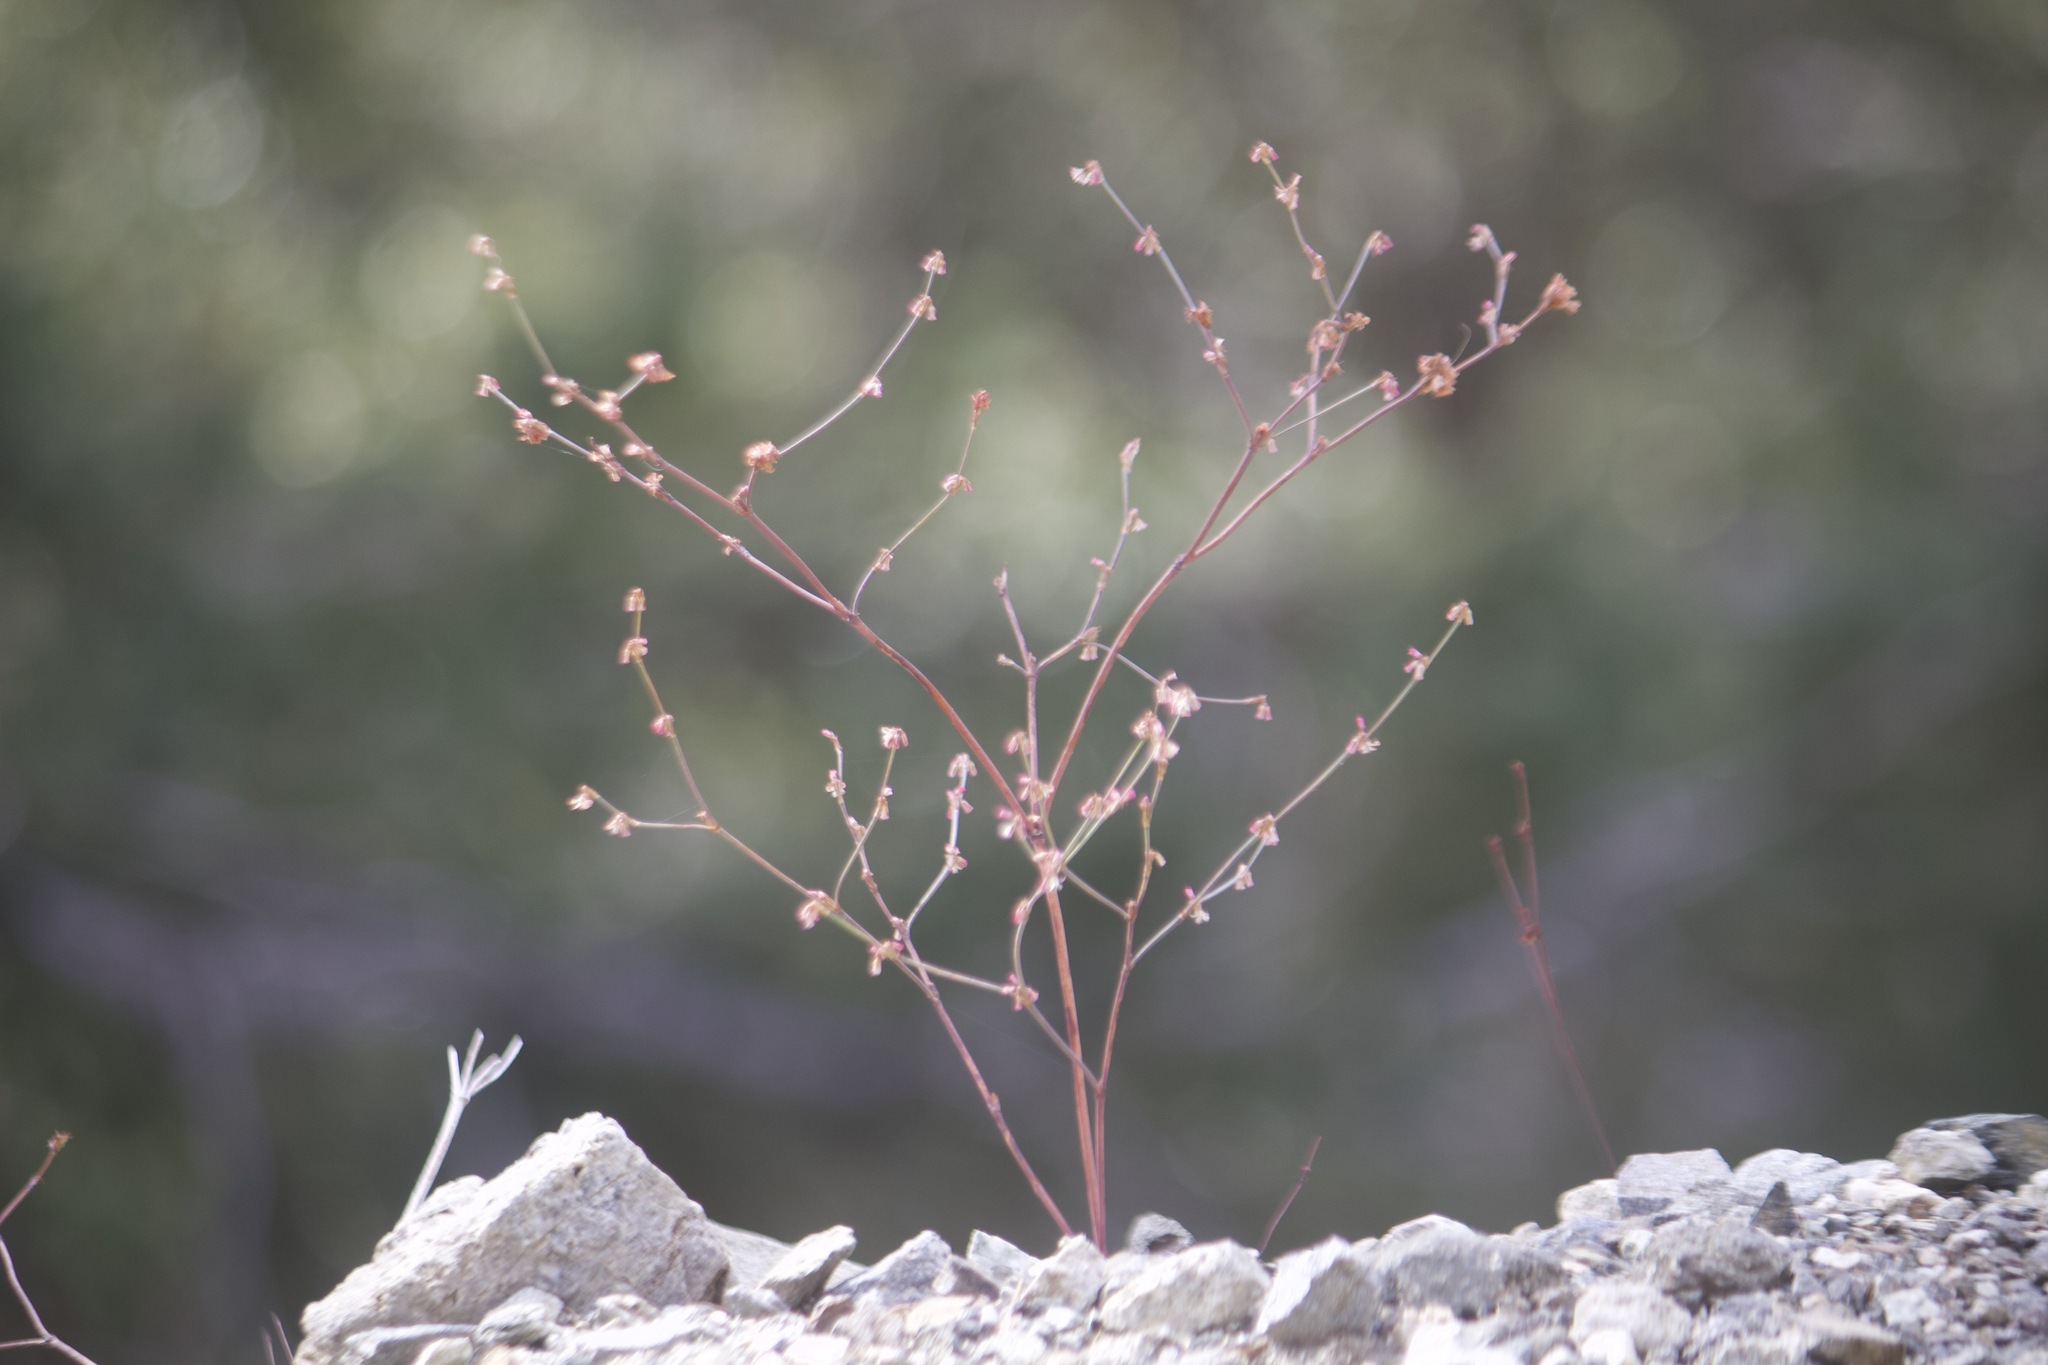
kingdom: Plantae
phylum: Tracheophyta
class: Magnoliopsida
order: Caryophyllales
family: Polygonaceae
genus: Eriogonum
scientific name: Eriogonum davidsonii
